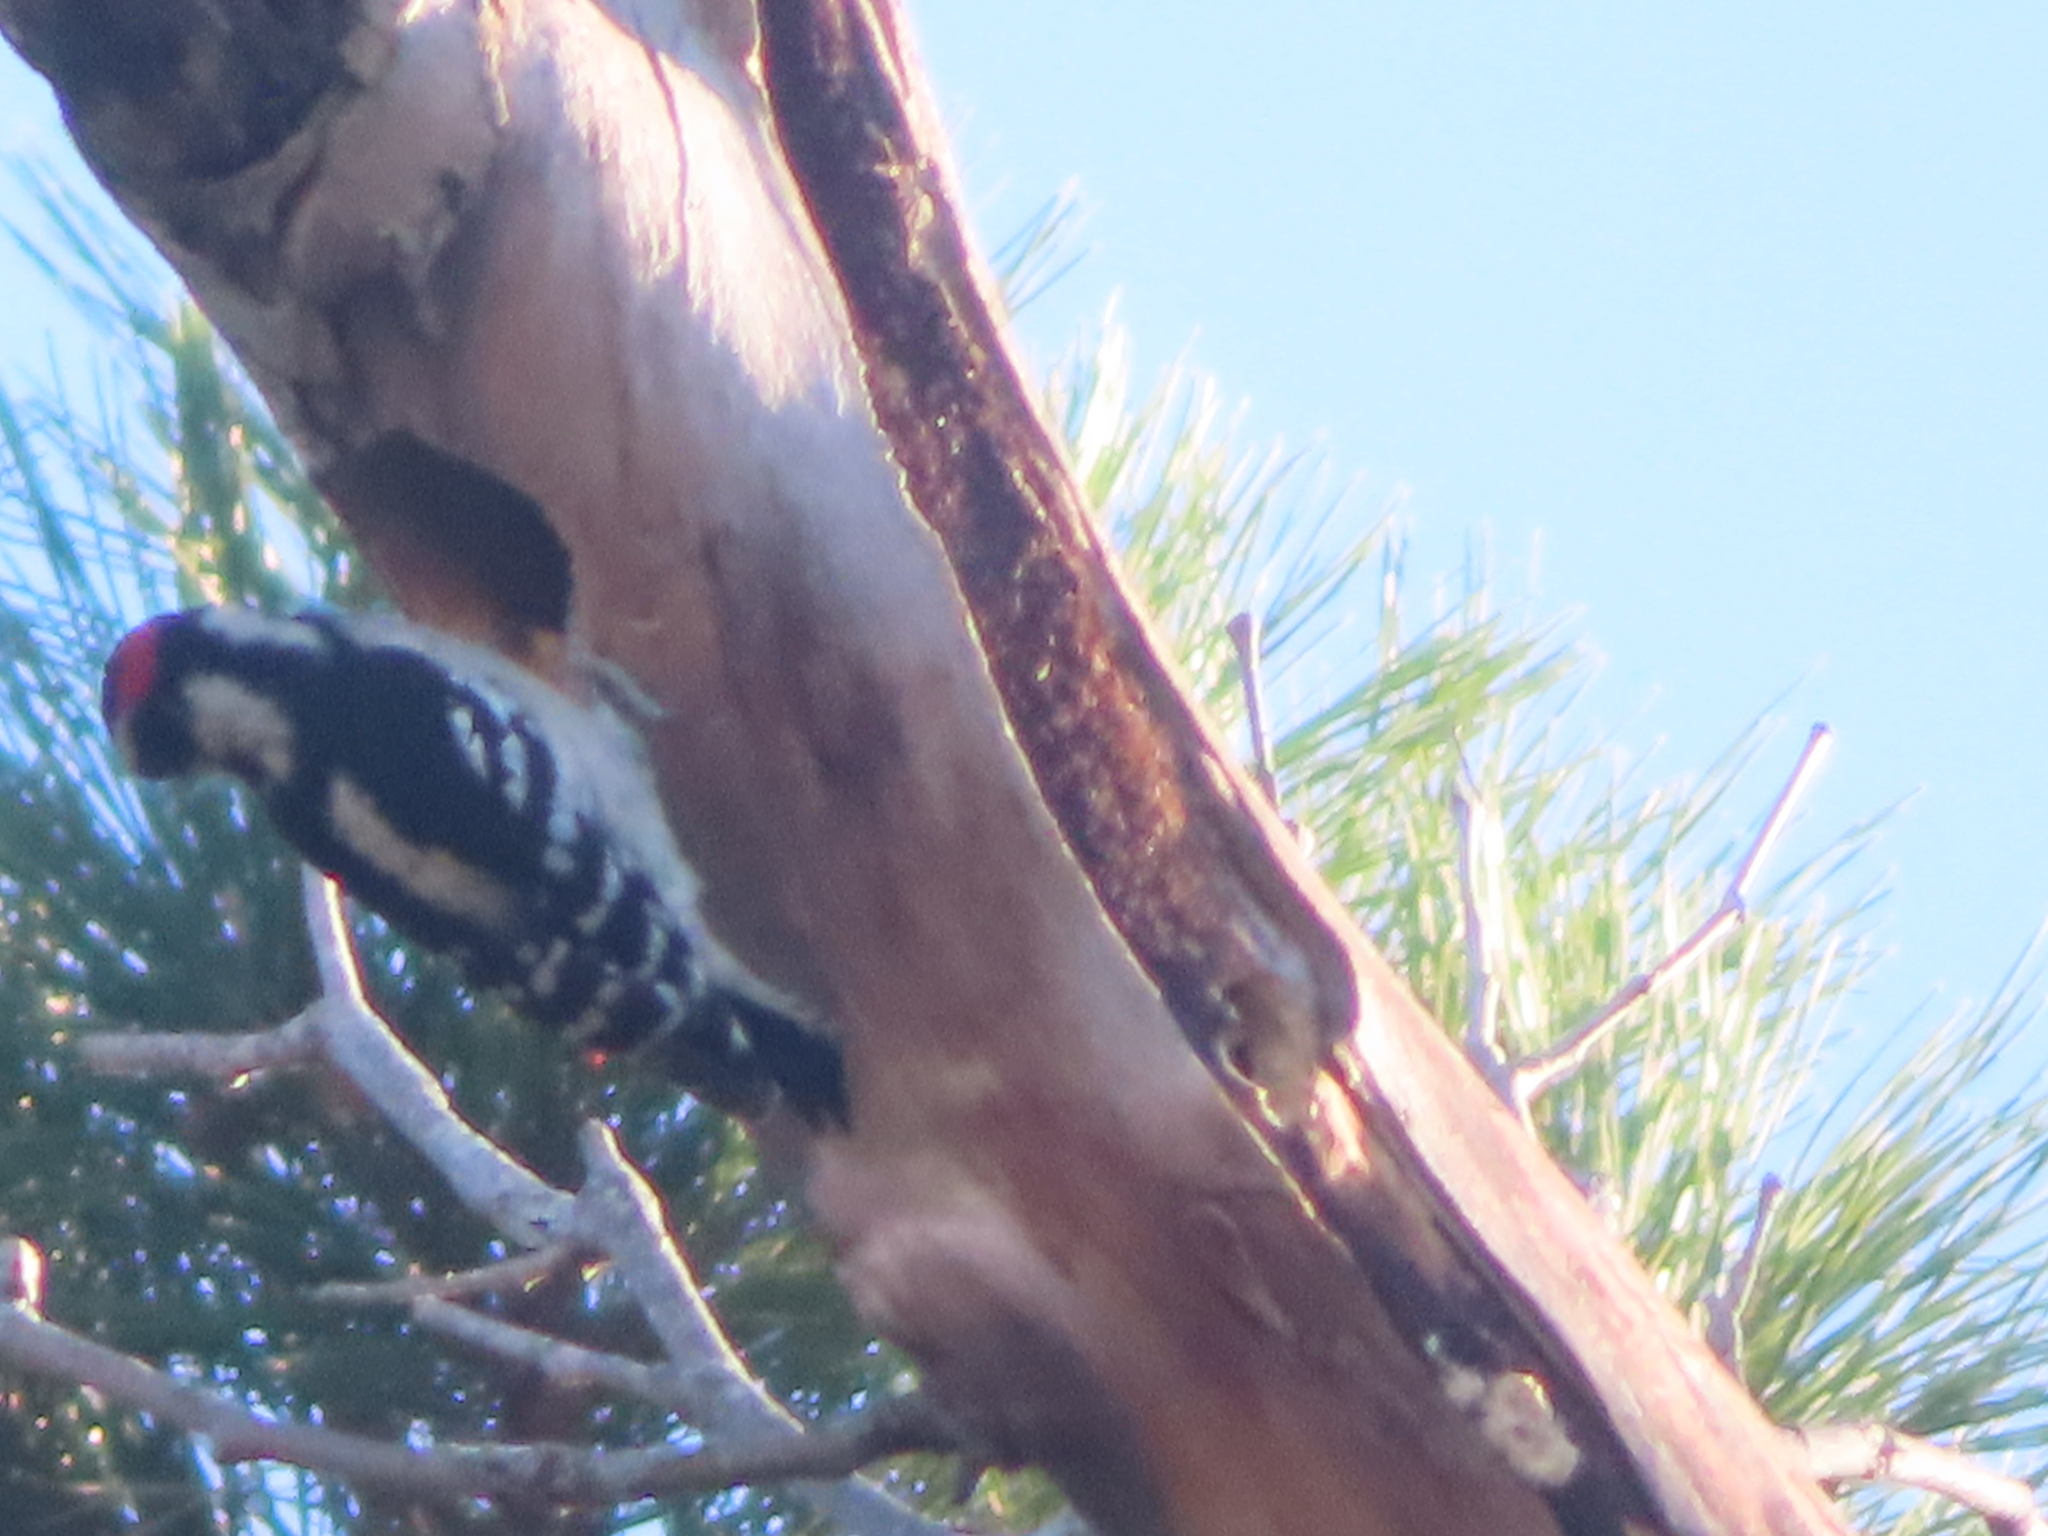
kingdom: Animalia
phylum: Chordata
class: Aves
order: Piciformes
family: Picidae
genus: Dryobates
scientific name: Dryobates pubescens
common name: Downy woodpecker
